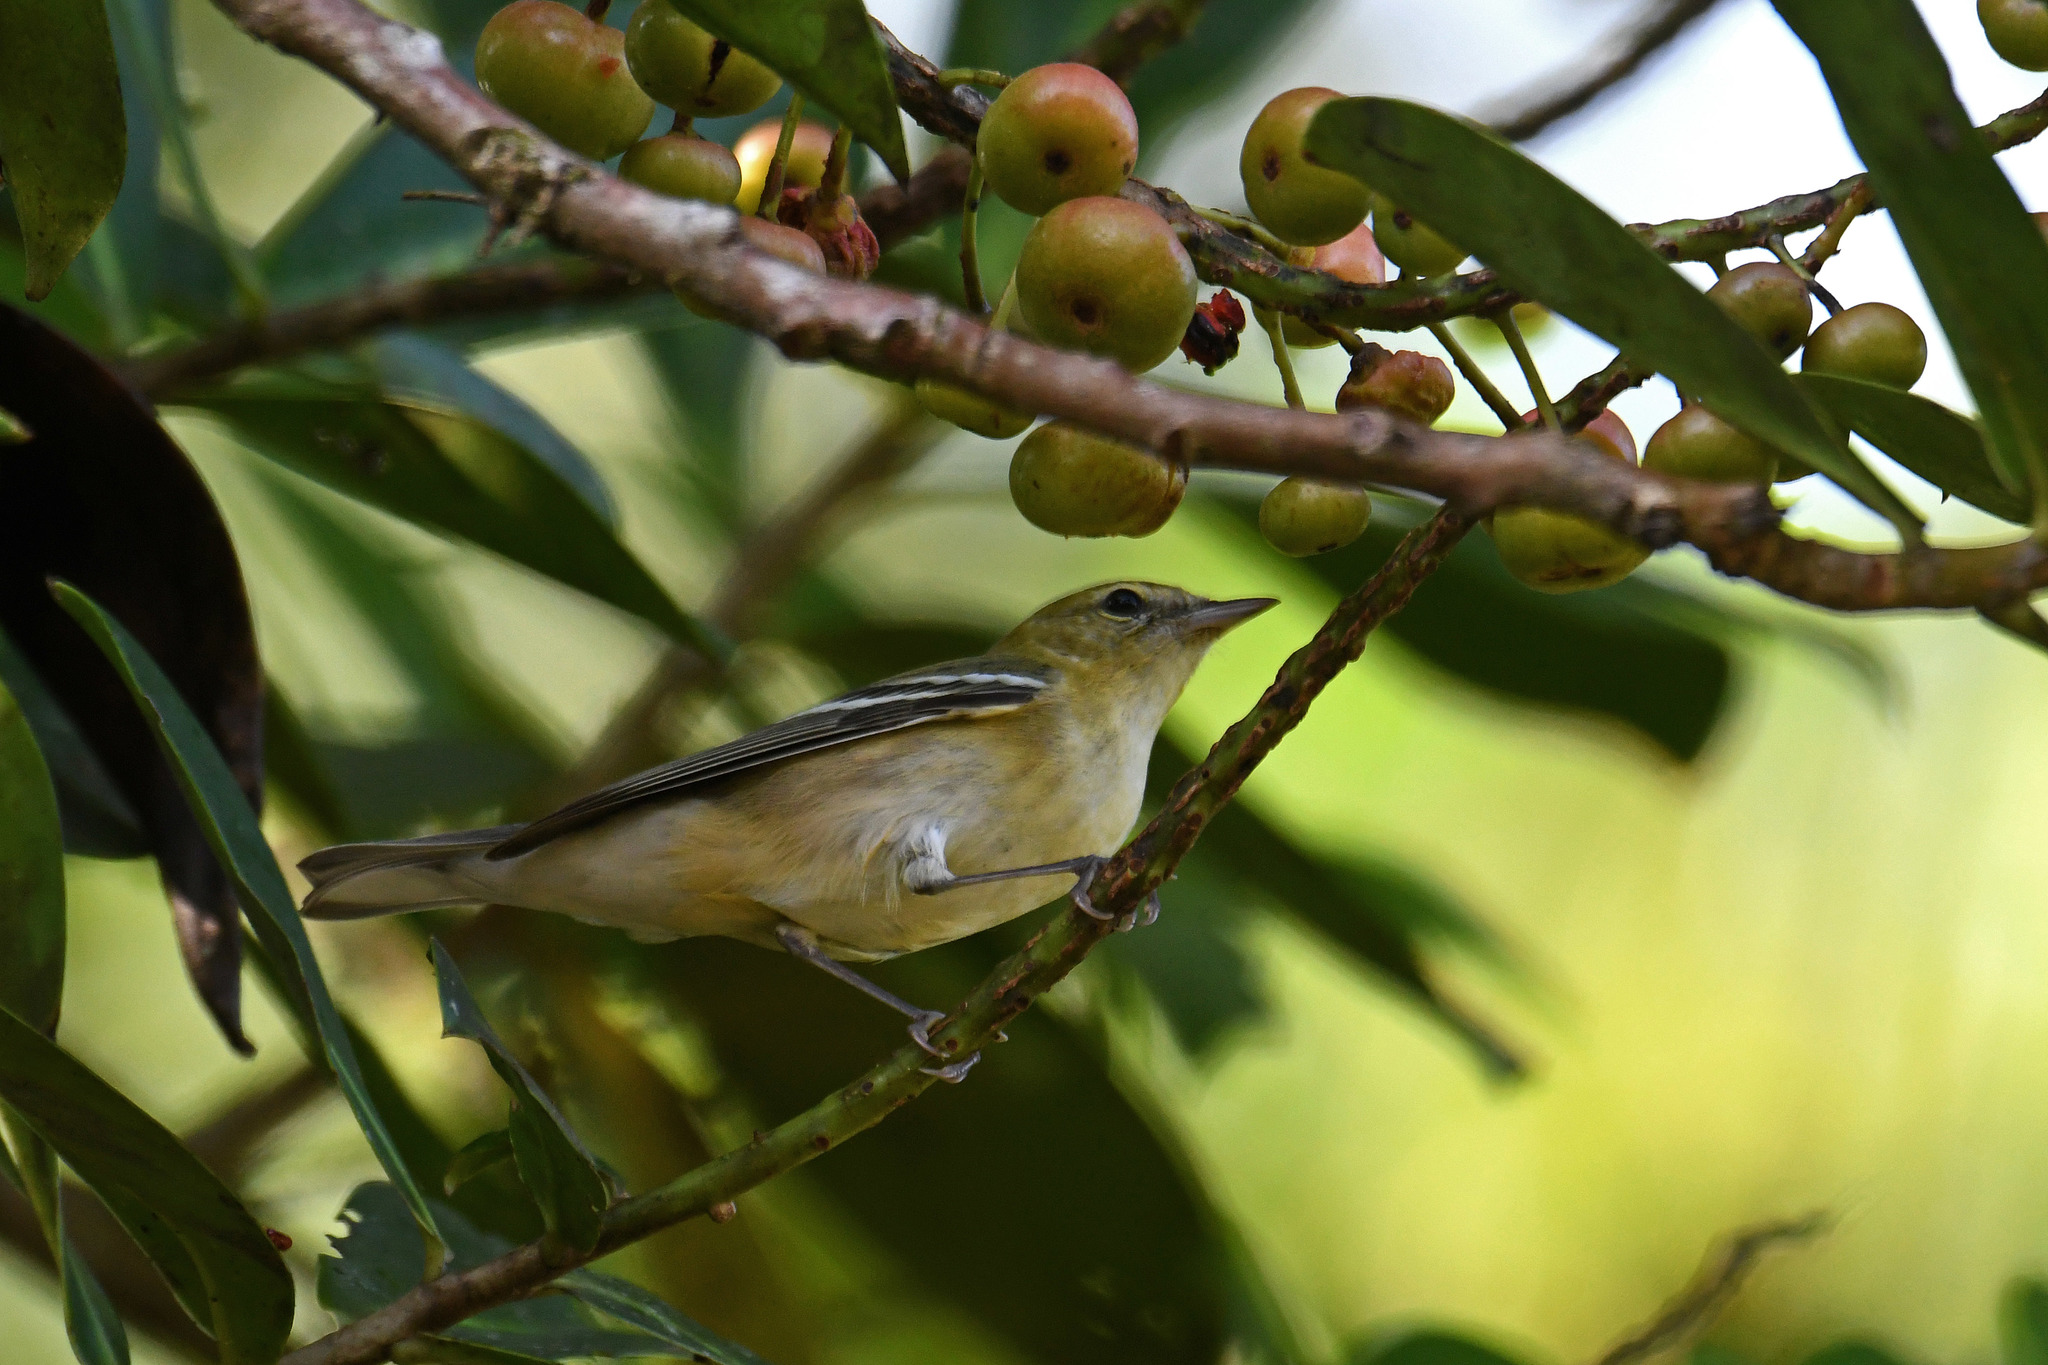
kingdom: Animalia
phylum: Chordata
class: Aves
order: Passeriformes
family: Parulidae
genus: Setophaga
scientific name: Setophaga castanea
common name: Bay-breasted warbler
